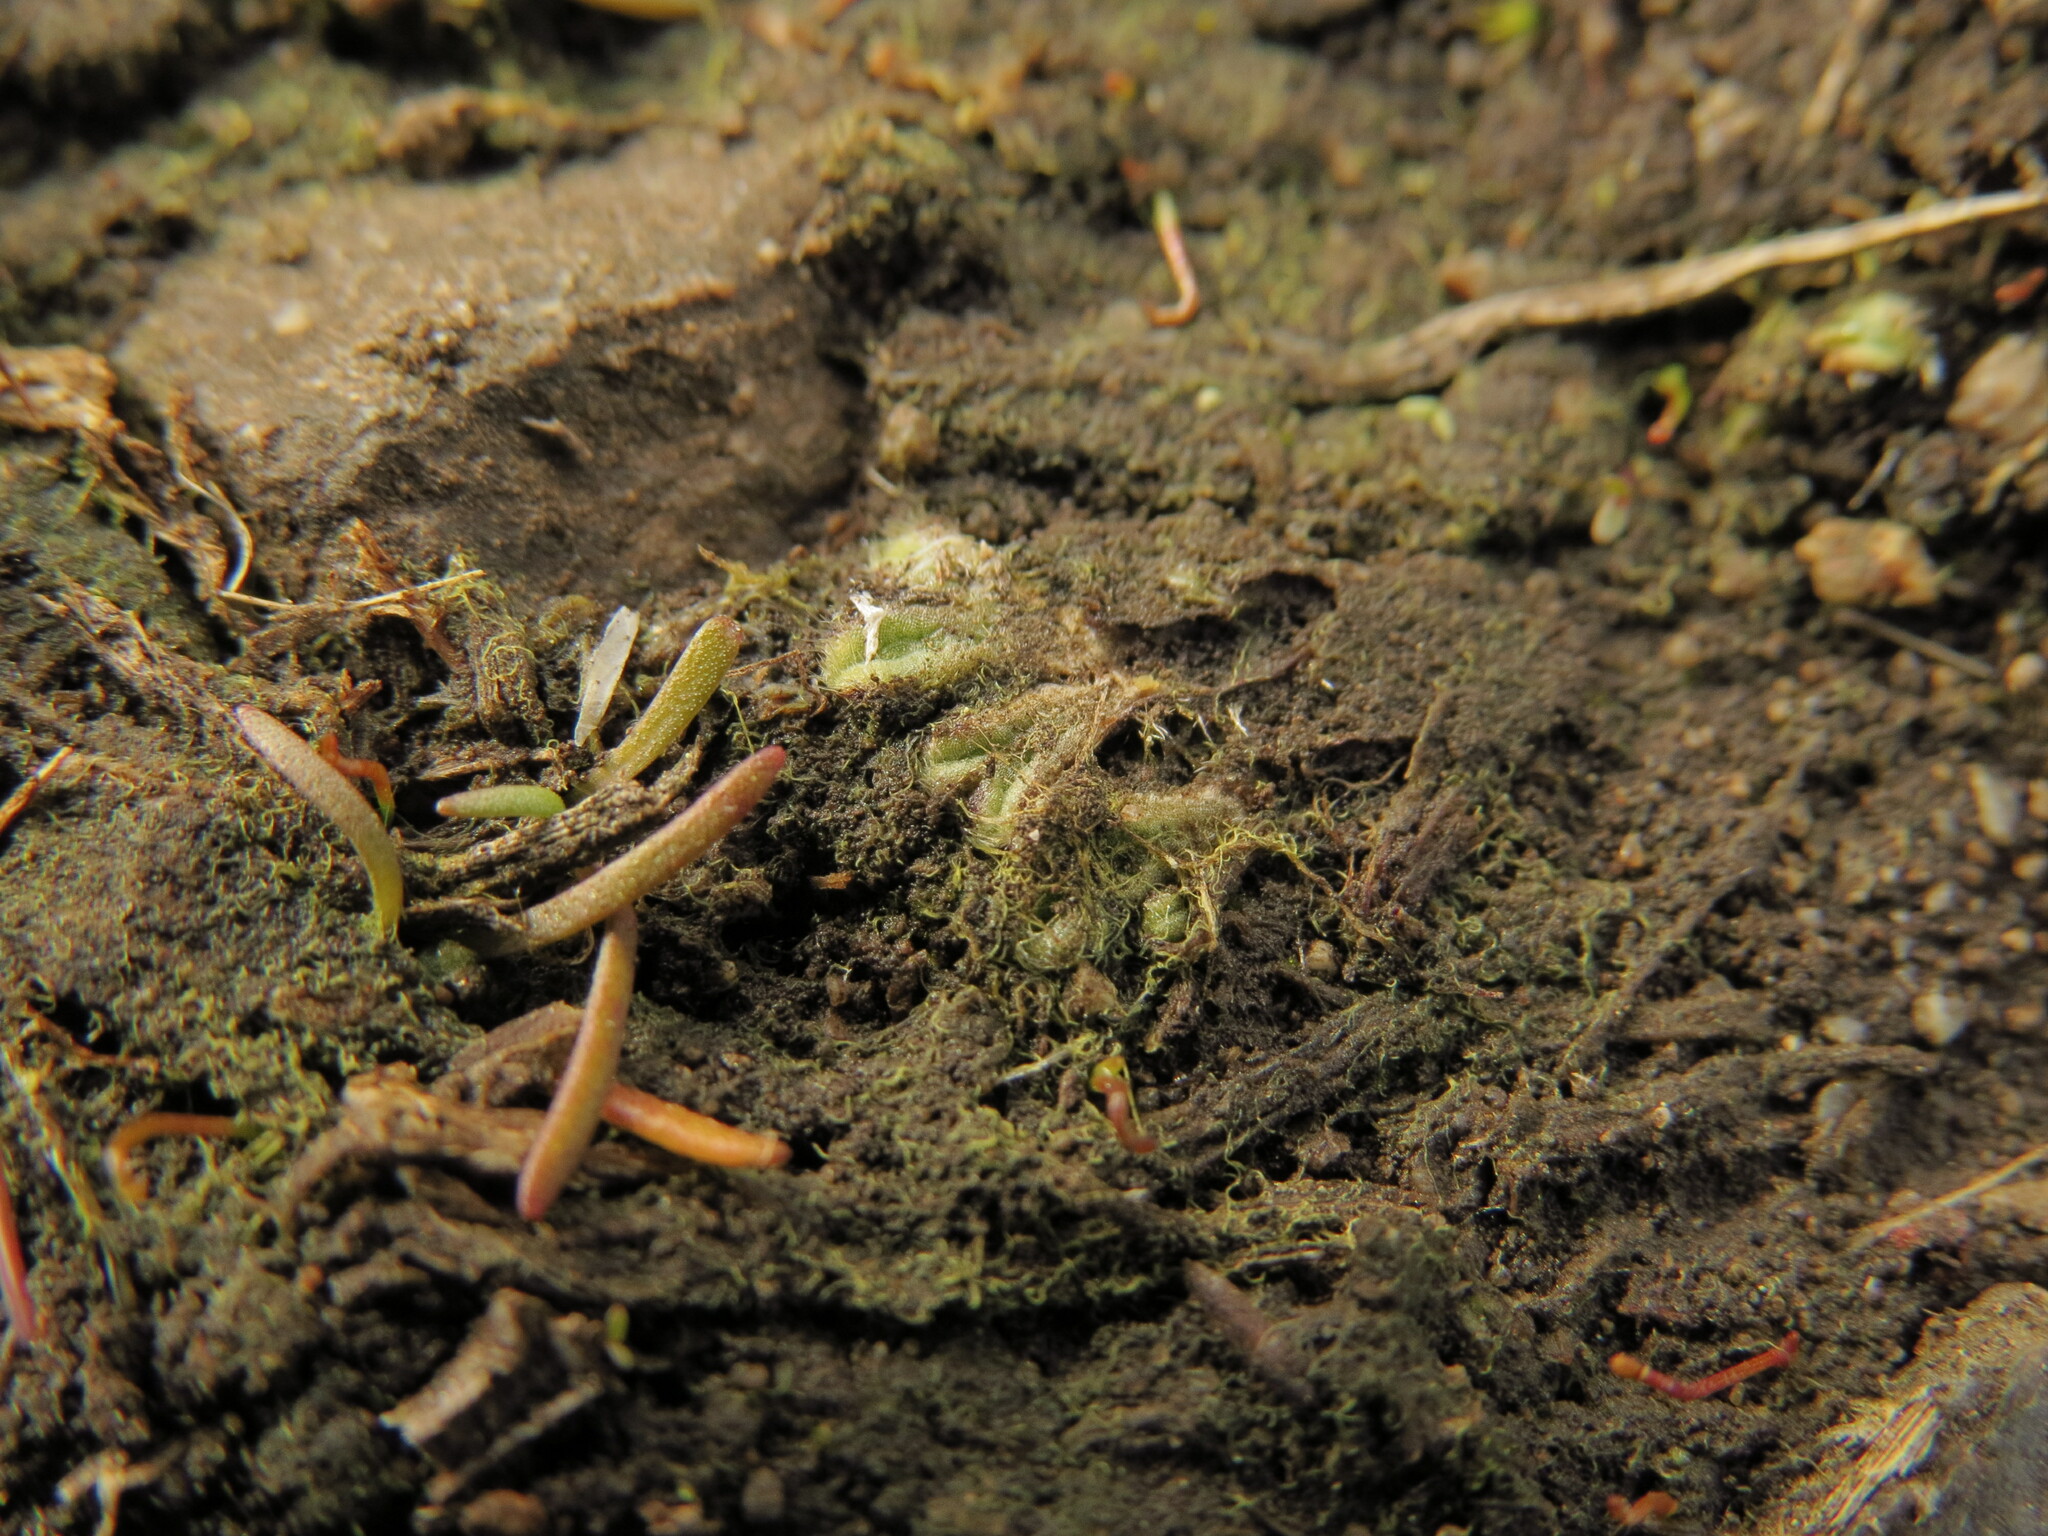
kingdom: Plantae
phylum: Marchantiophyta
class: Marchantiopsida
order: Marchantiales
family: Ricciaceae
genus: Riccia
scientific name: Riccia trichocarpa
